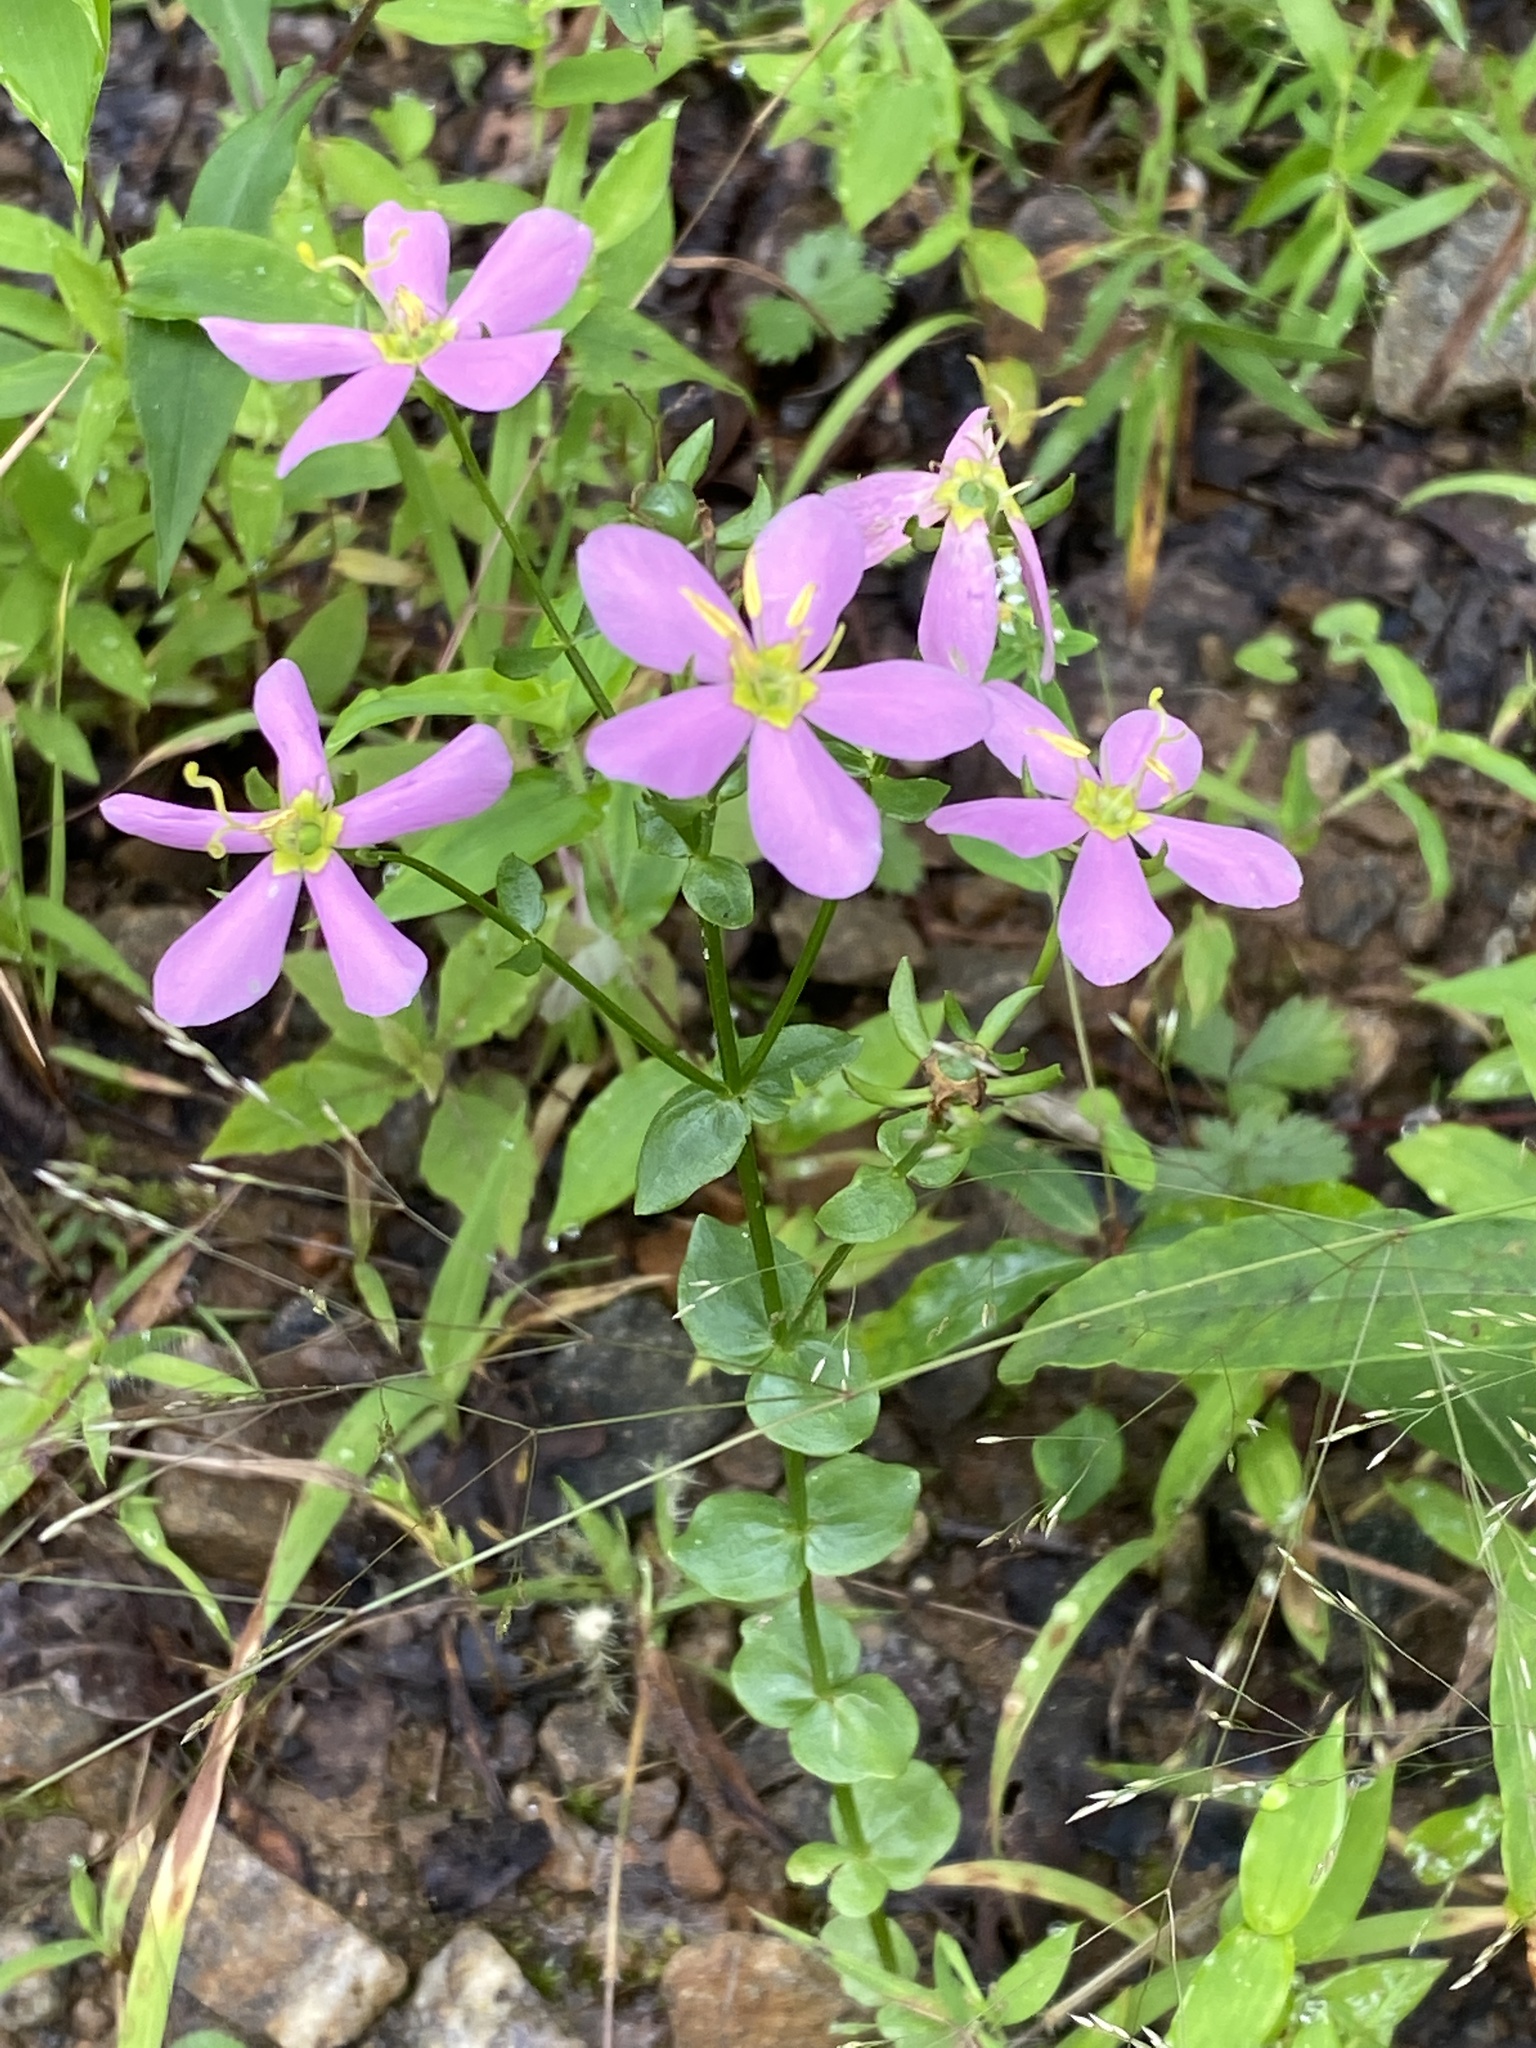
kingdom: Plantae
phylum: Tracheophyta
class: Magnoliopsida
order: Gentianales
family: Gentianaceae
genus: Sabatia
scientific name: Sabatia angularis
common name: Rose-pink
